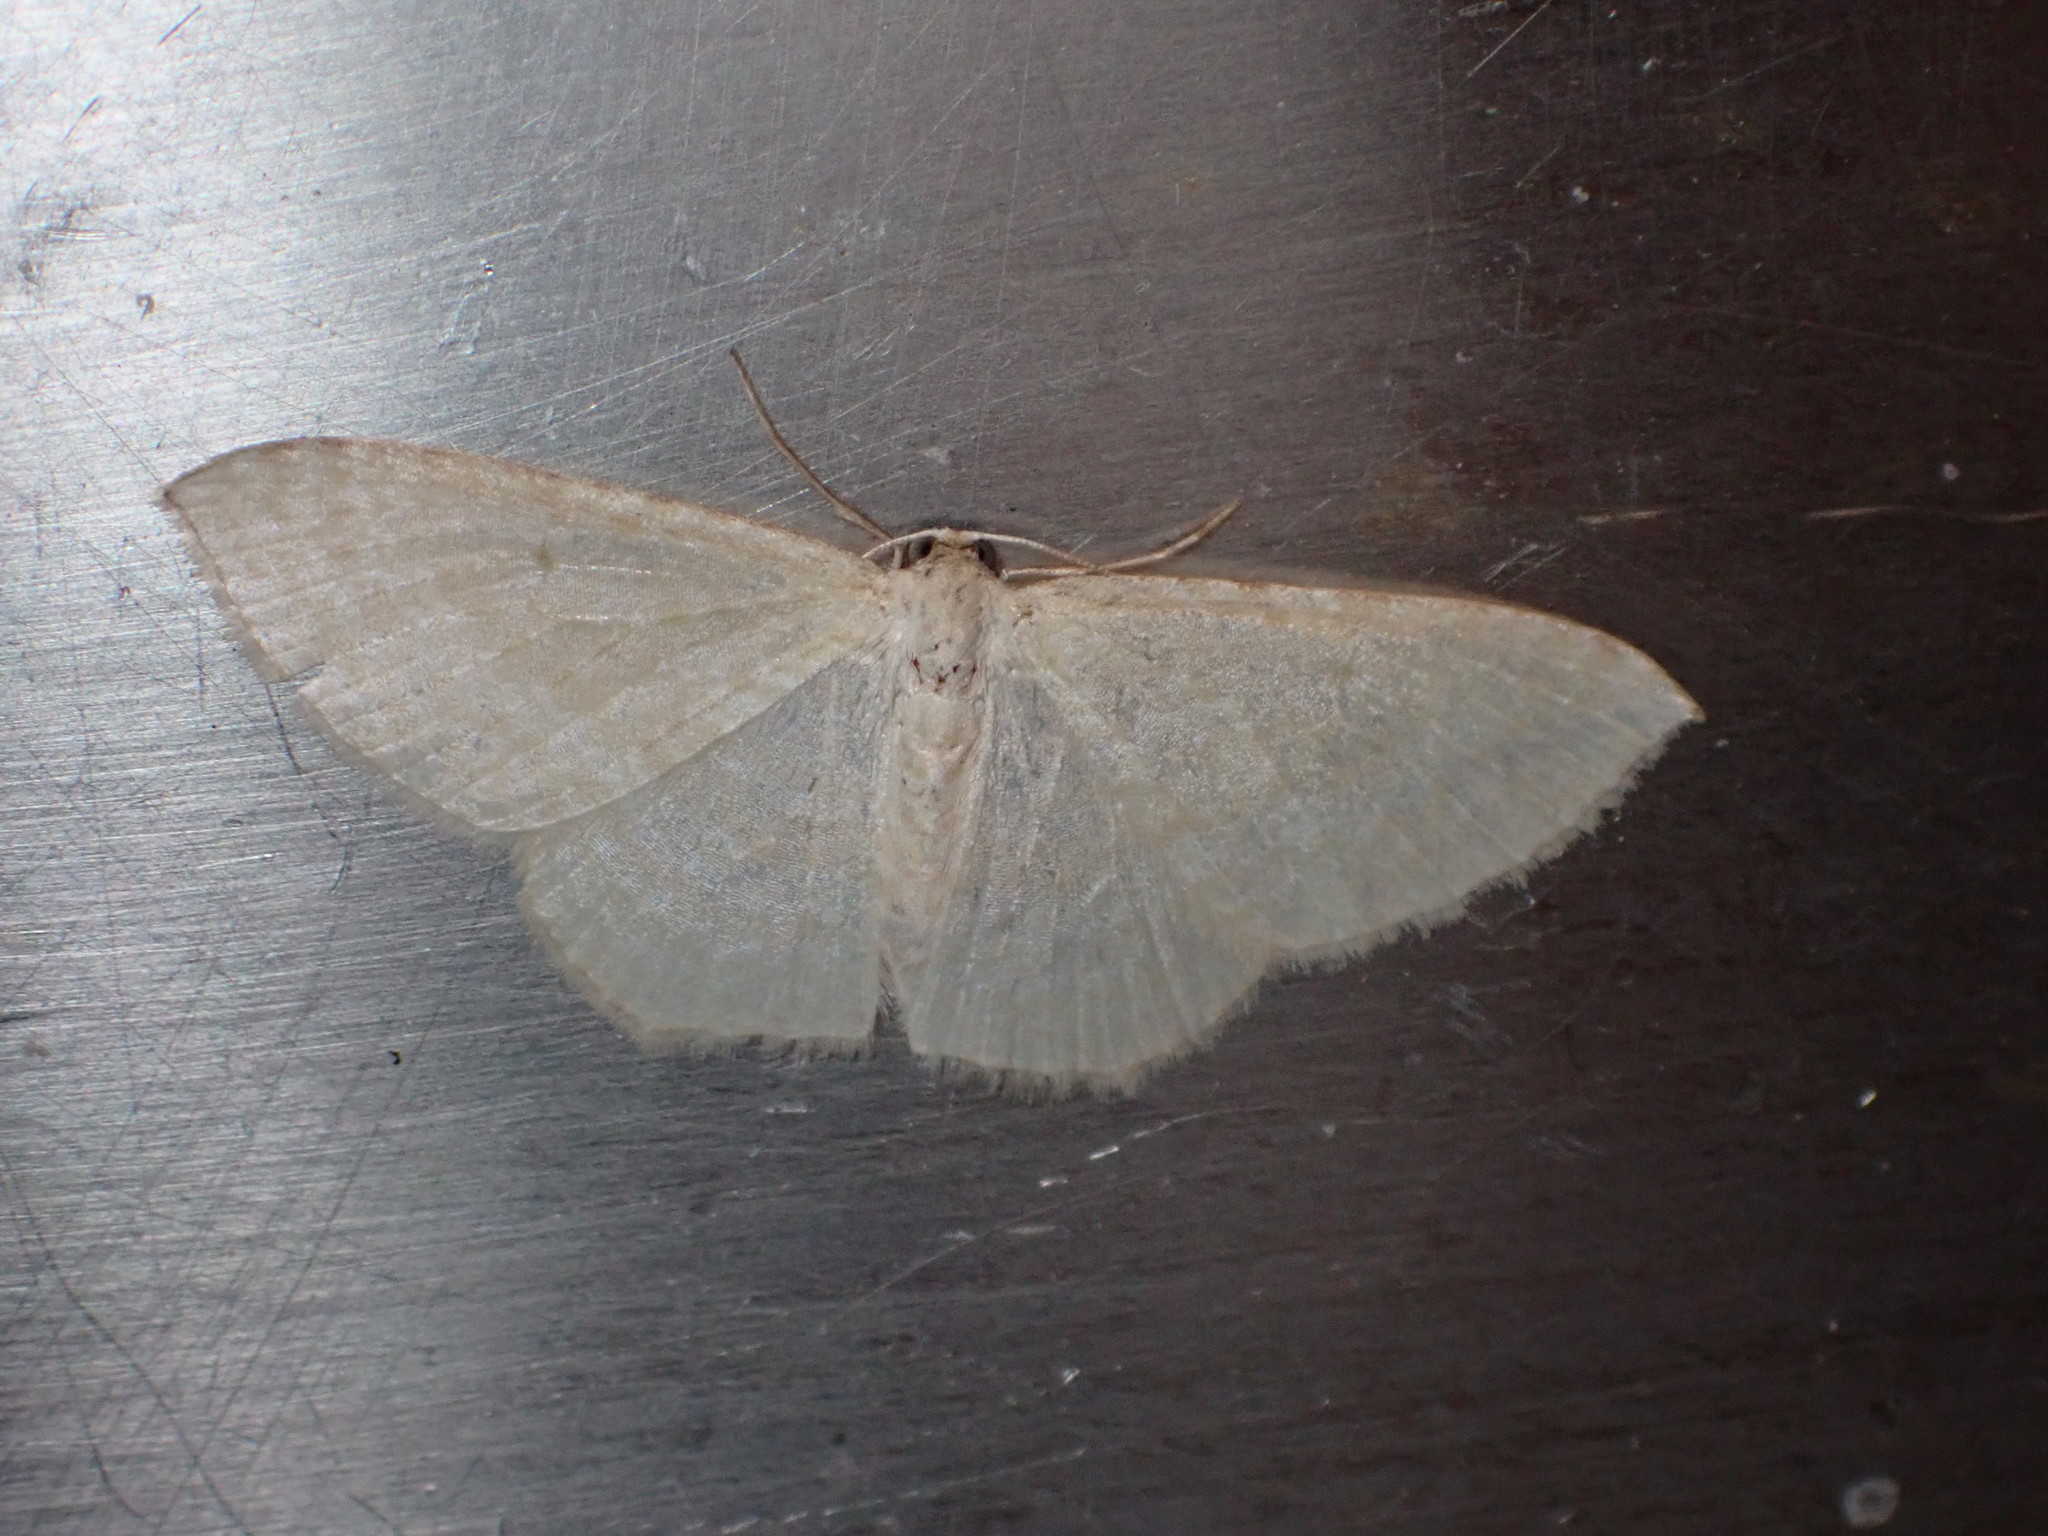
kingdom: Animalia
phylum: Arthropoda
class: Insecta
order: Lepidoptera
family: Geometridae
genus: Poecilasthena
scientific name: Poecilasthena pulchraria
